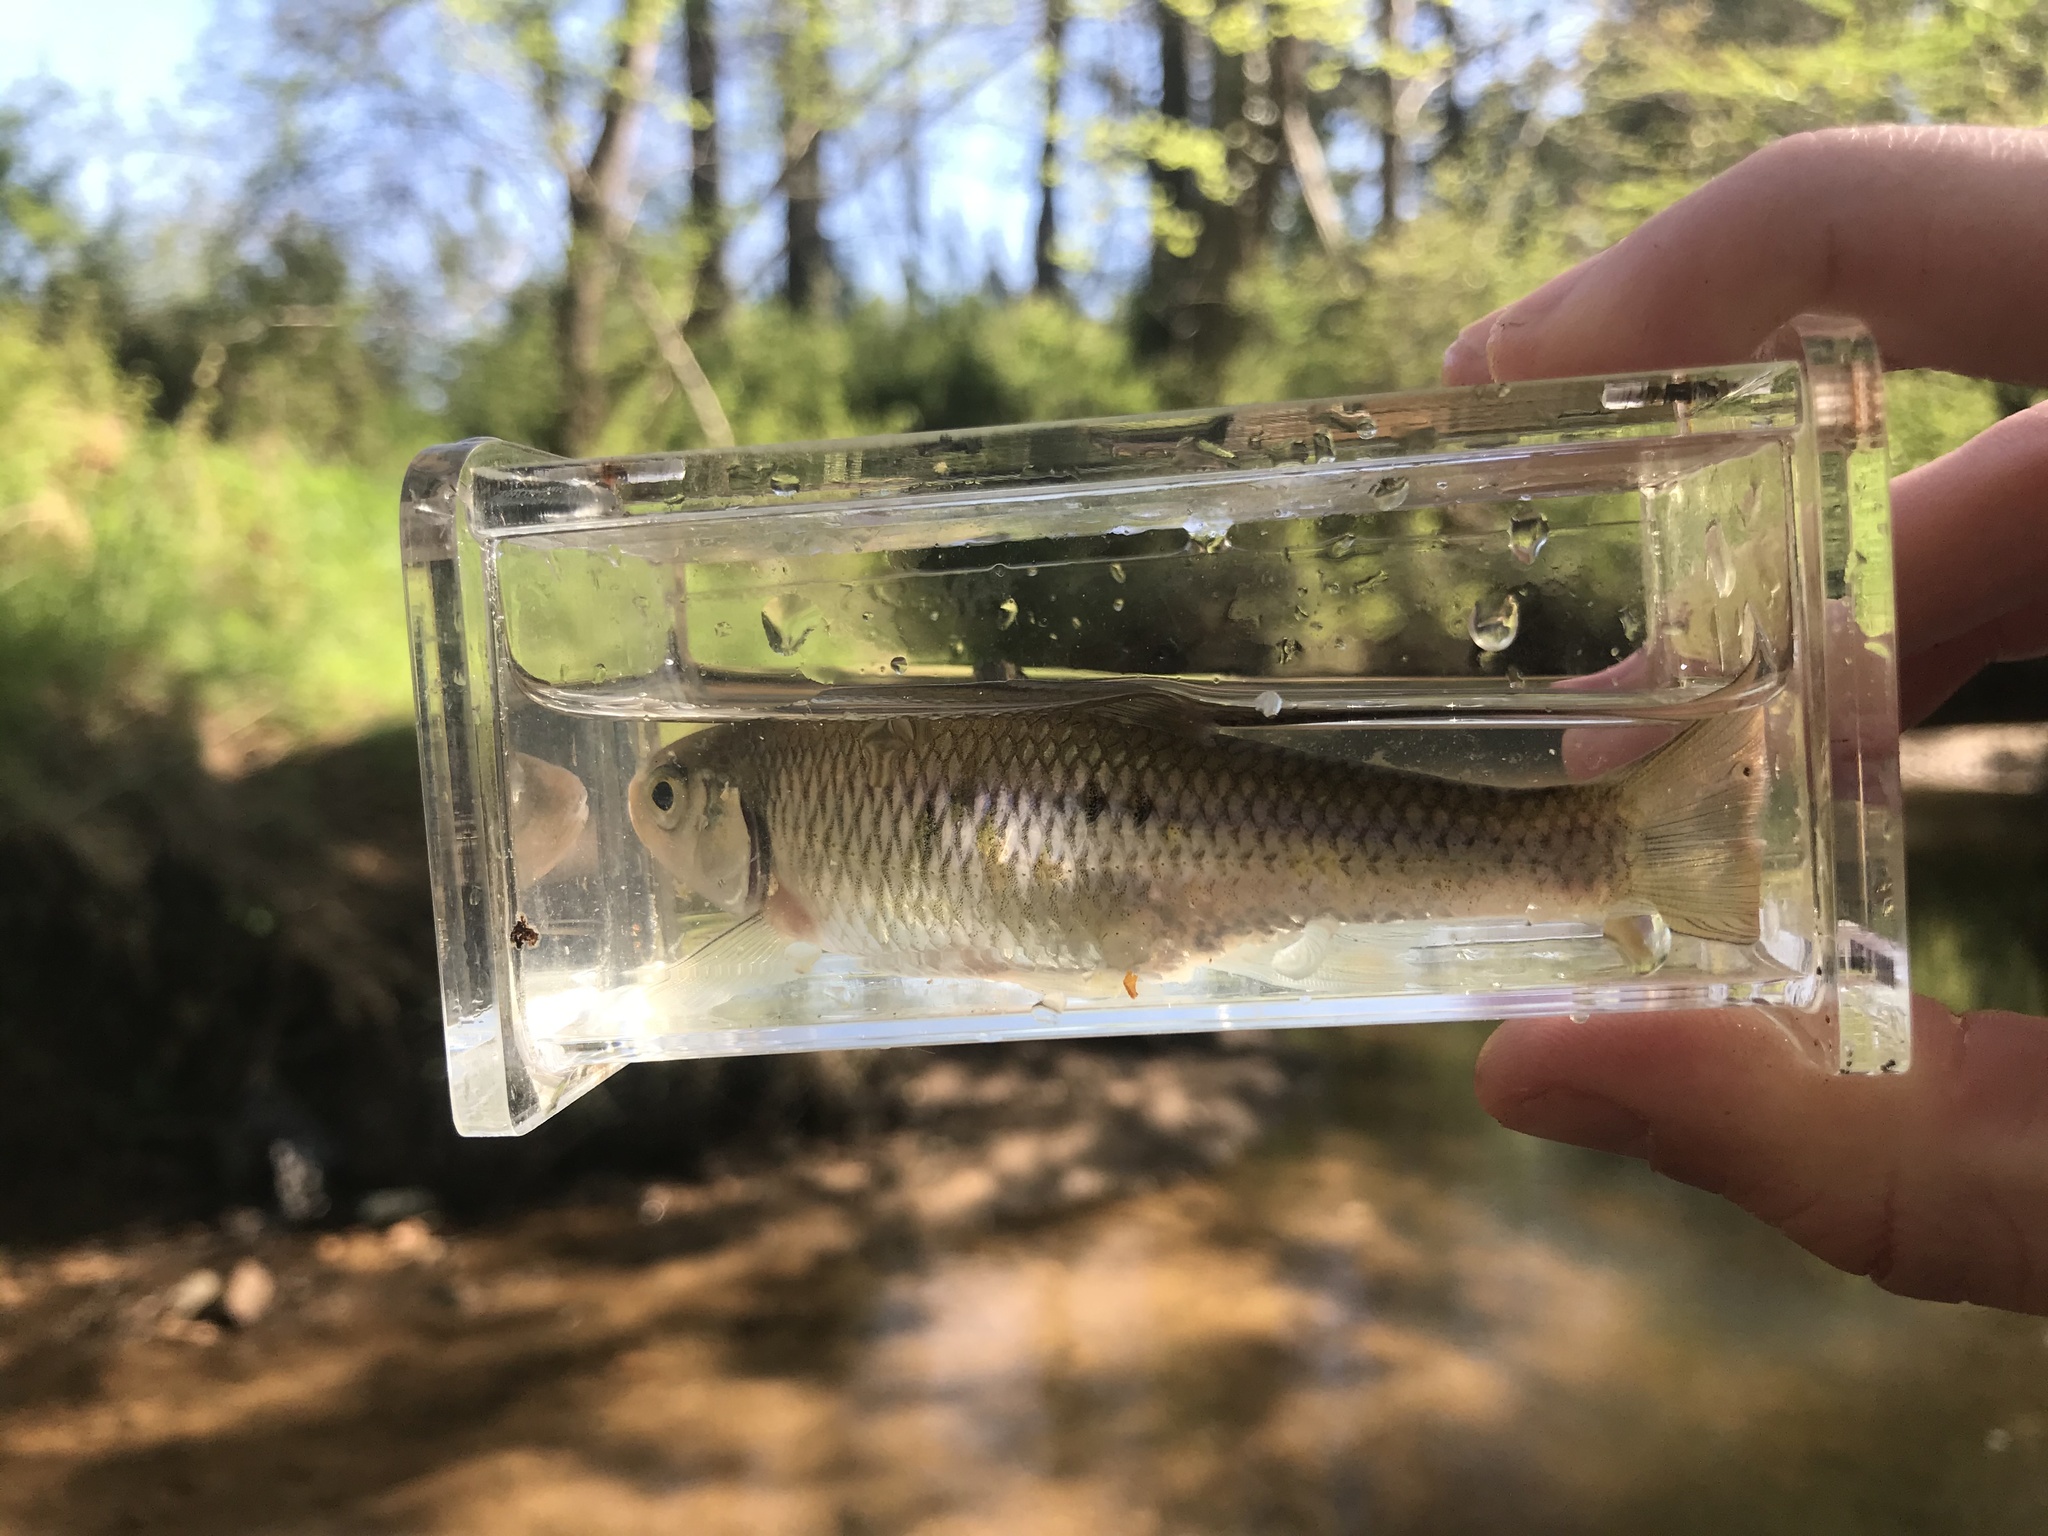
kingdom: Animalia
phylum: Chordata
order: Cypriniformes
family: Cyprinidae
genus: Luxilus
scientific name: Luxilus albeolus
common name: White shiner
